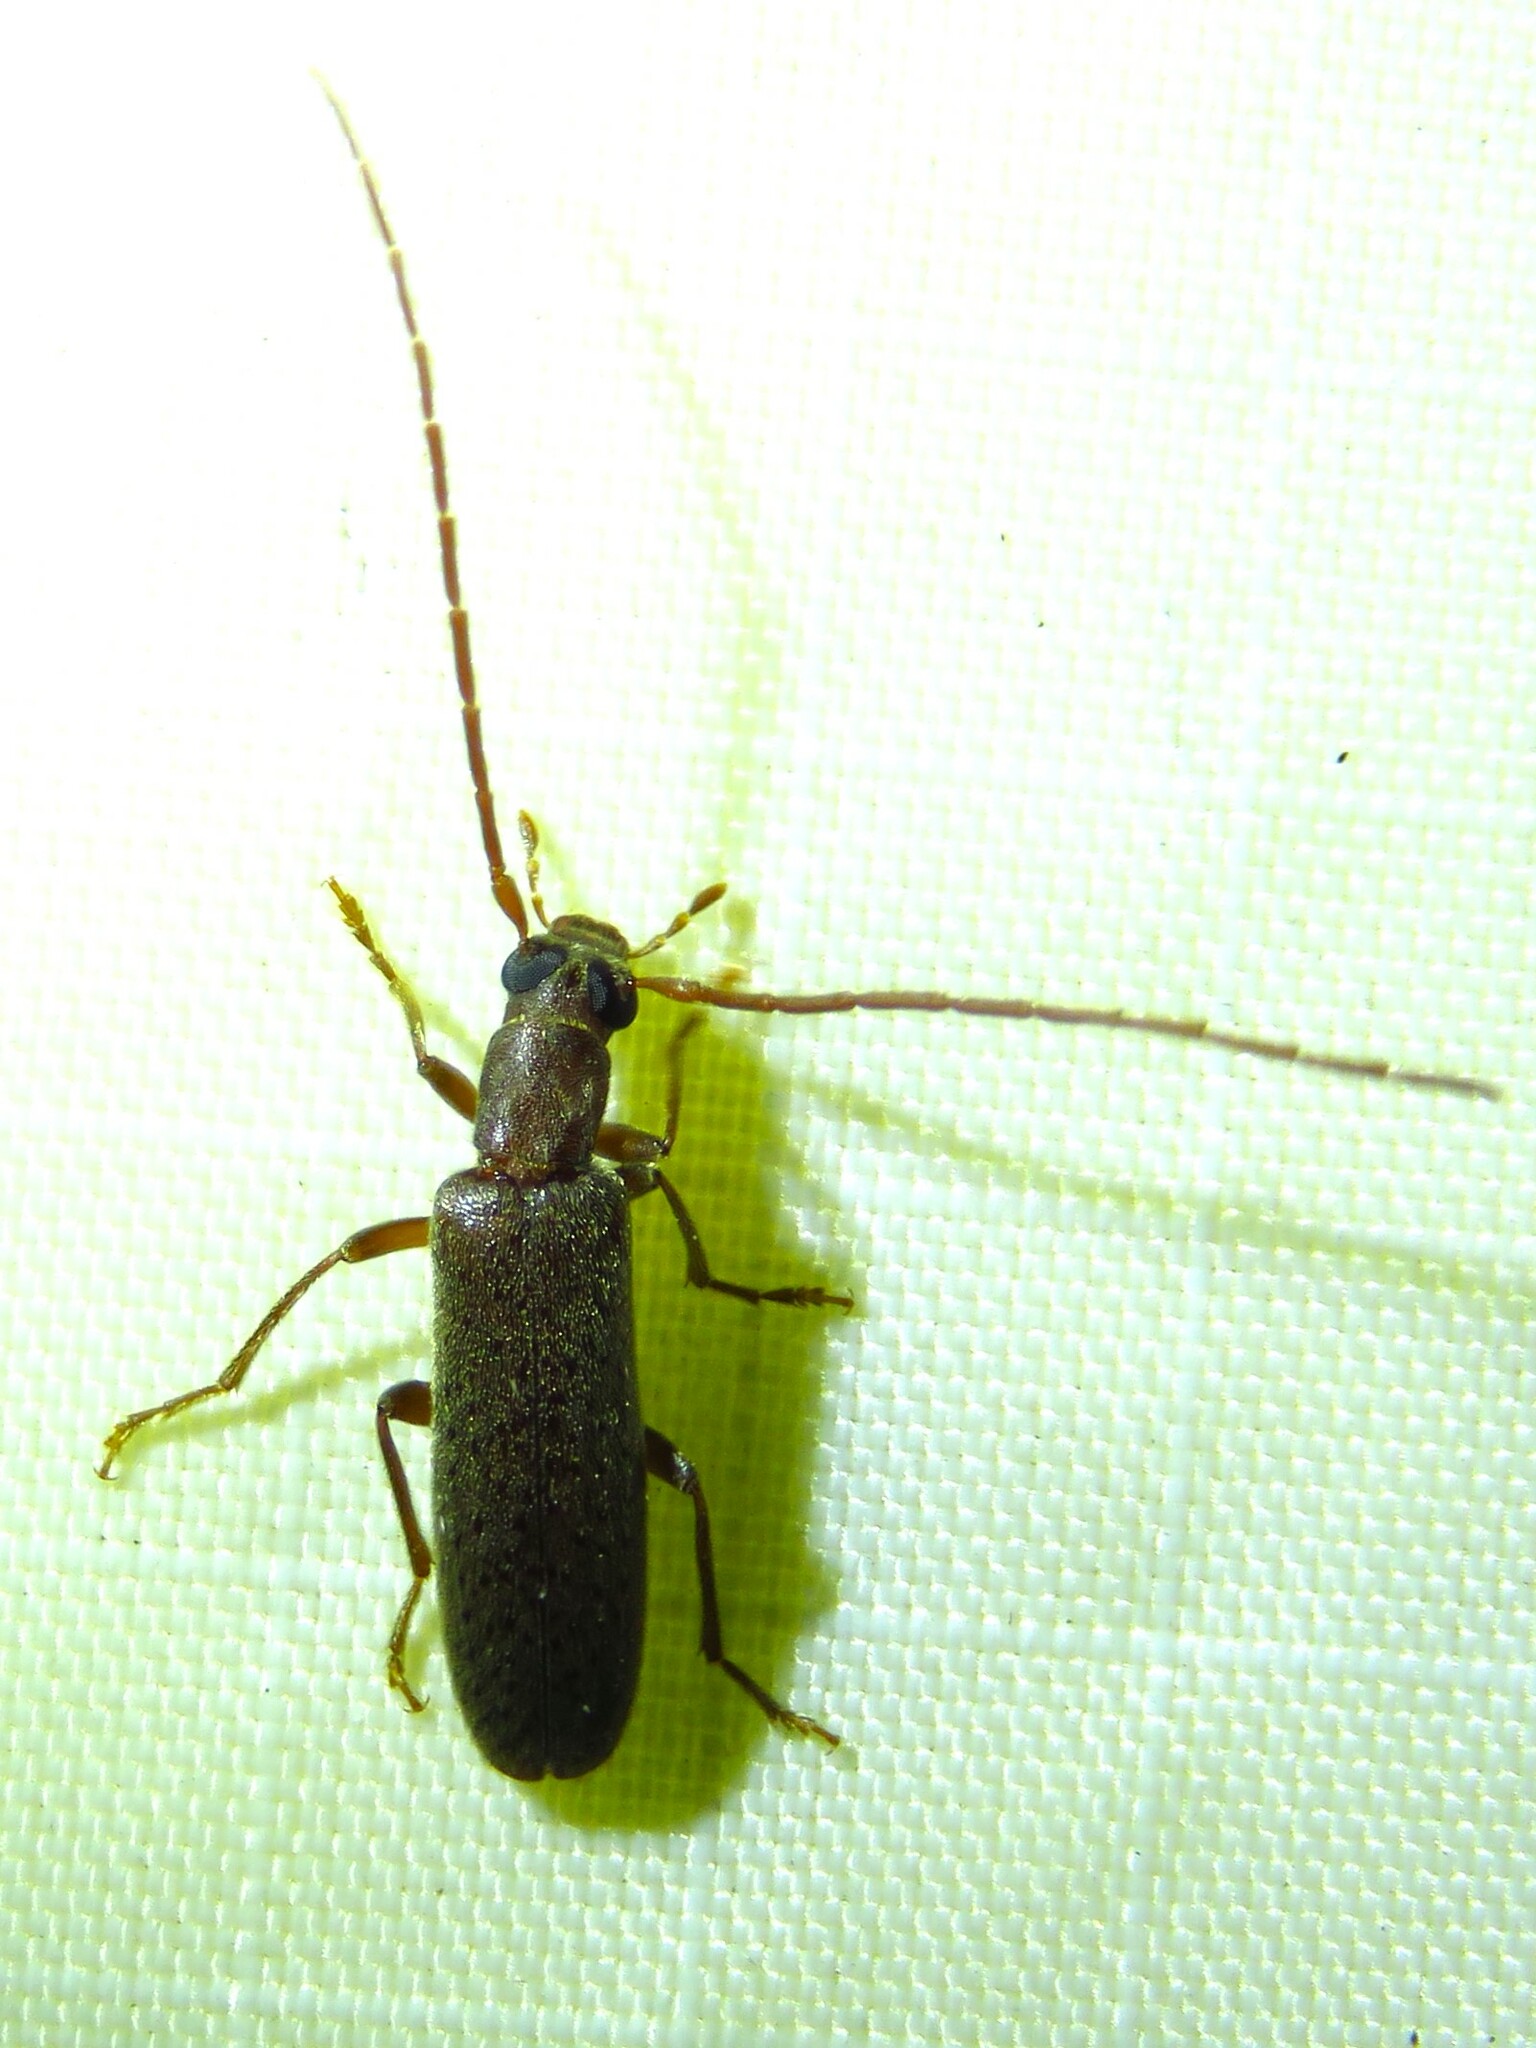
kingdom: Animalia
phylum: Arthropoda
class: Insecta
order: Coleoptera
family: Oedemeridae
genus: Sparedrus
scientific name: Sparedrus aspersus
